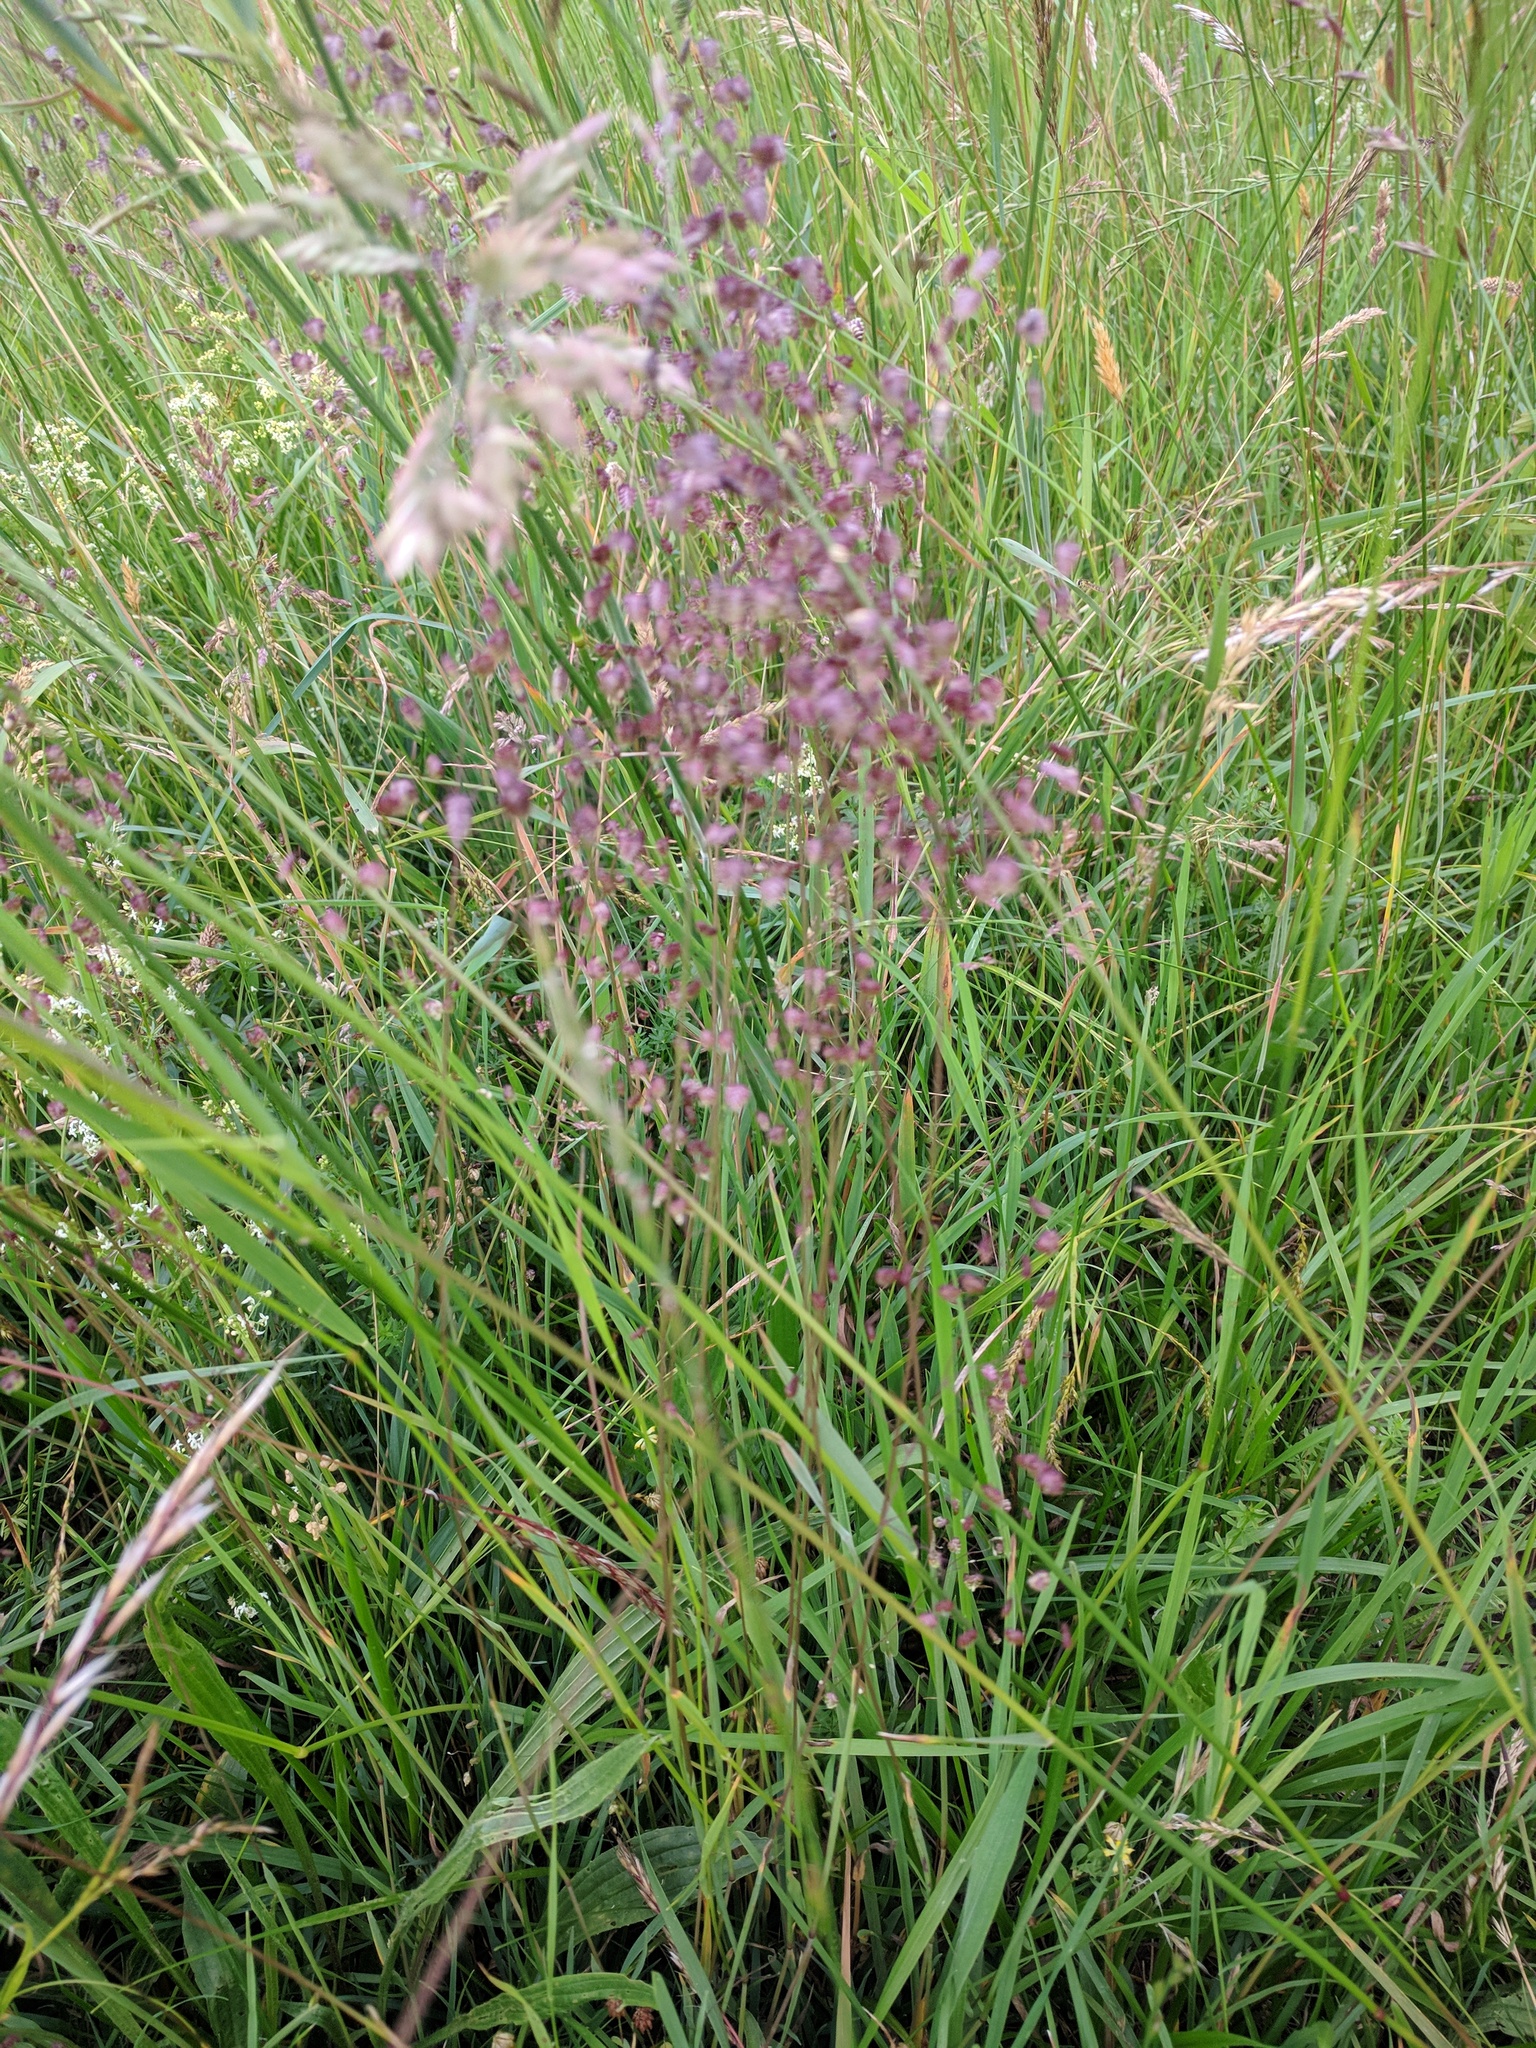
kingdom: Plantae
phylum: Tracheophyta
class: Liliopsida
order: Poales
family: Poaceae
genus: Briza
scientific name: Briza media
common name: Quaking grass
